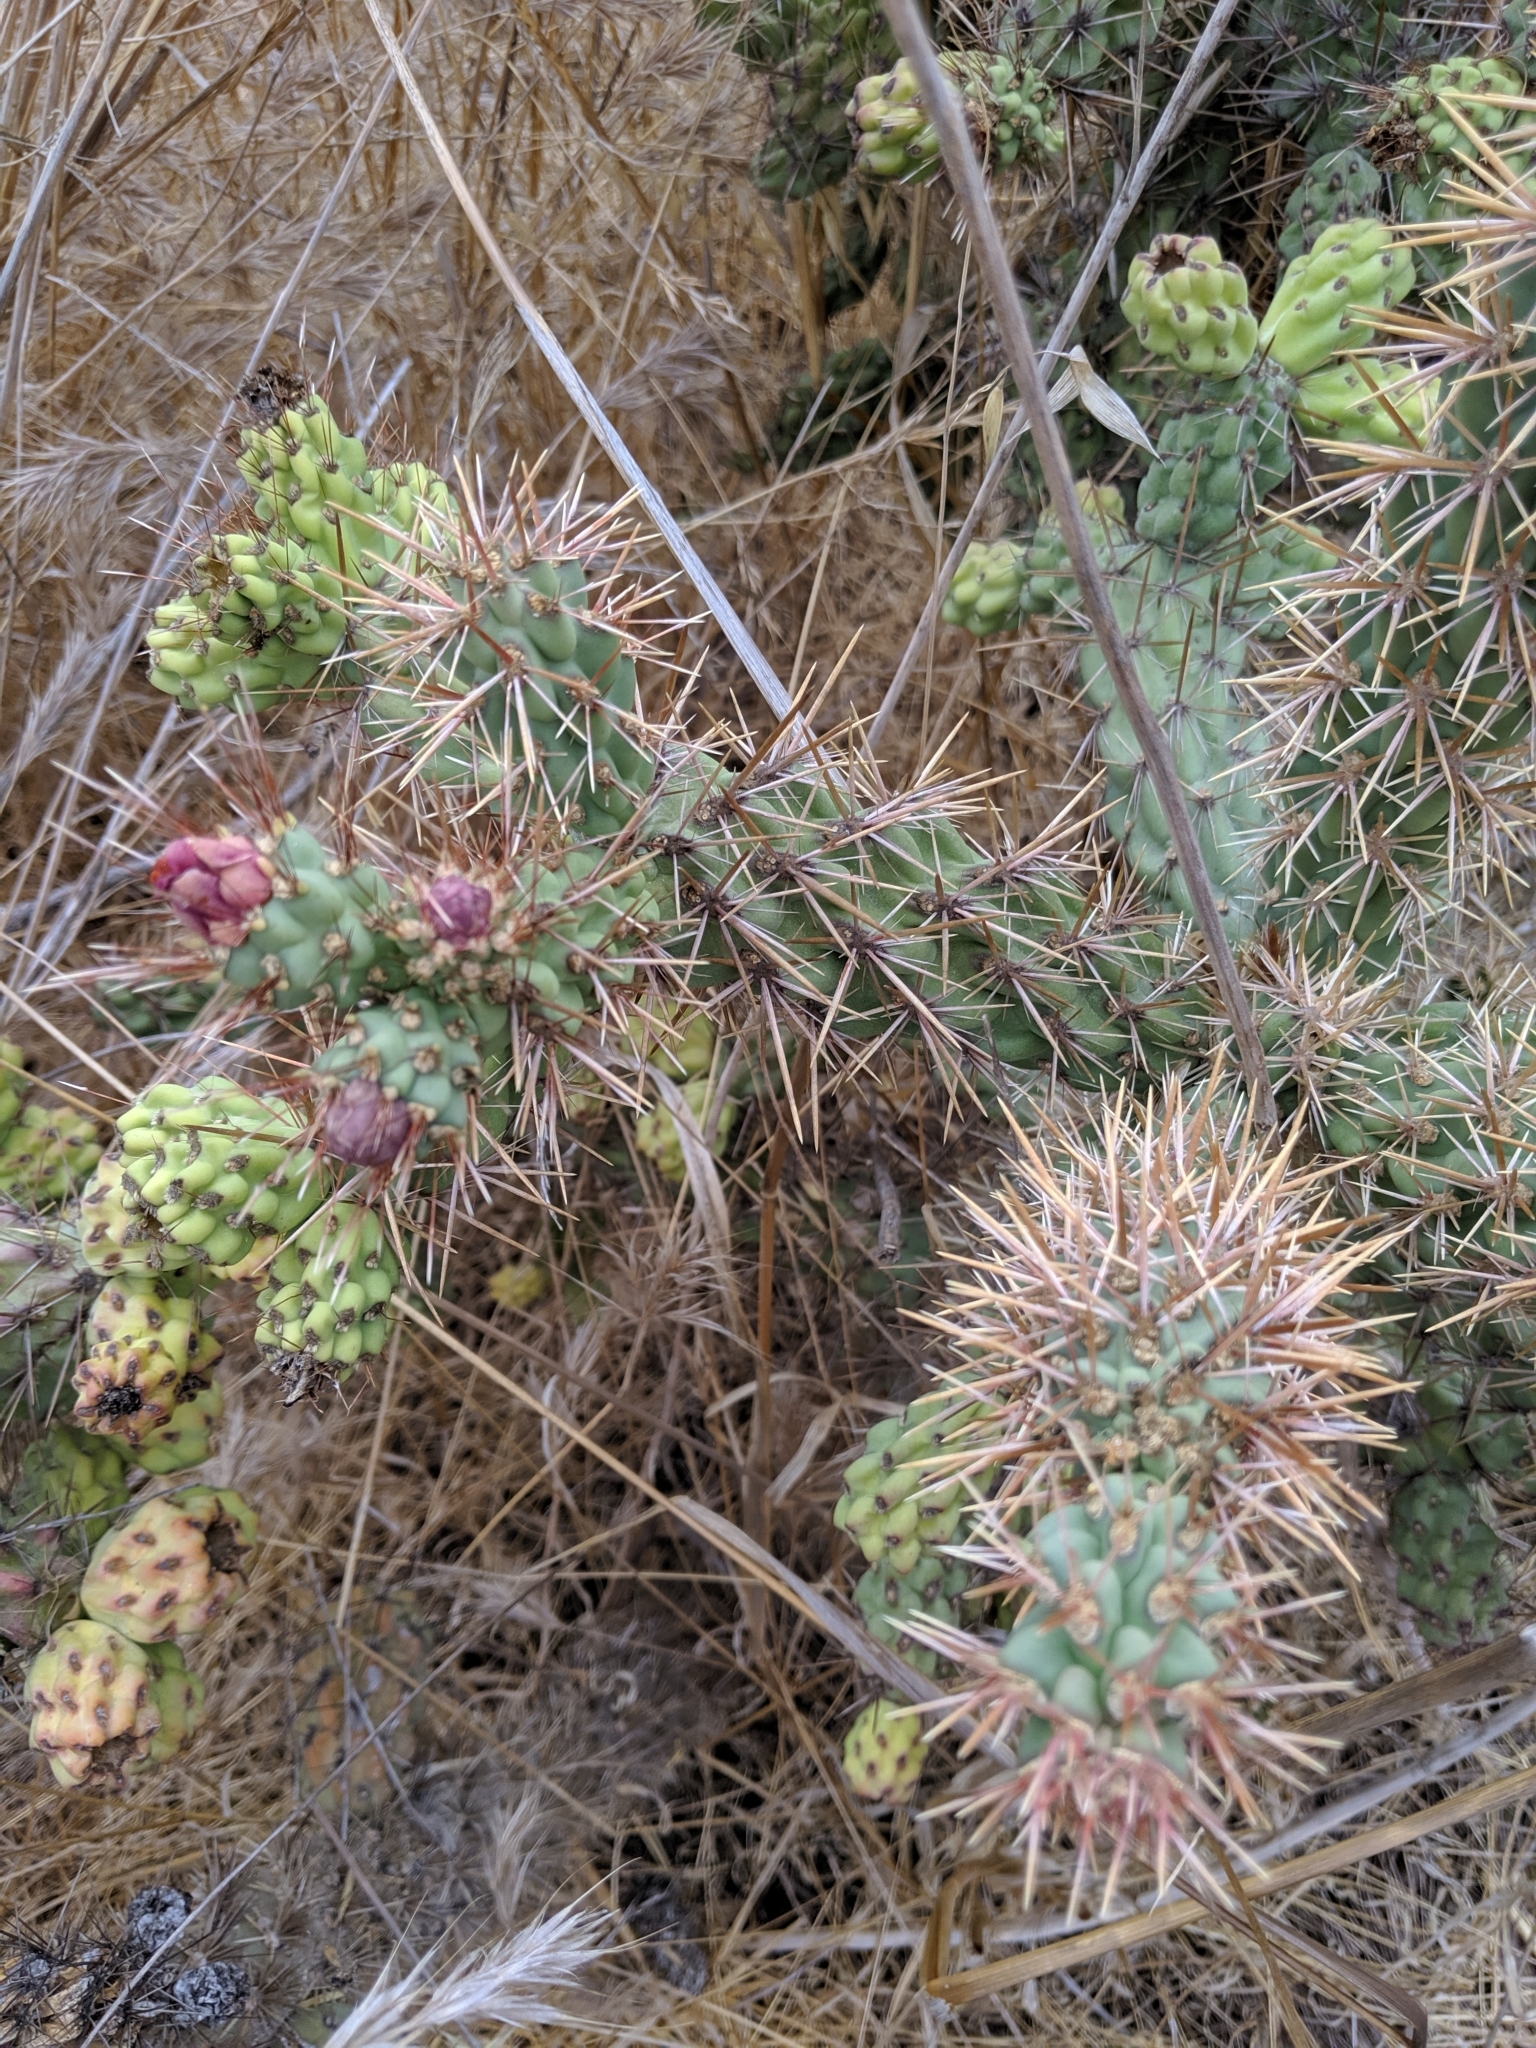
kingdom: Plantae
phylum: Tracheophyta
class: Magnoliopsida
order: Caryophyllales
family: Cactaceae
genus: Cylindropuntia
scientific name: Cylindropuntia prolifera
